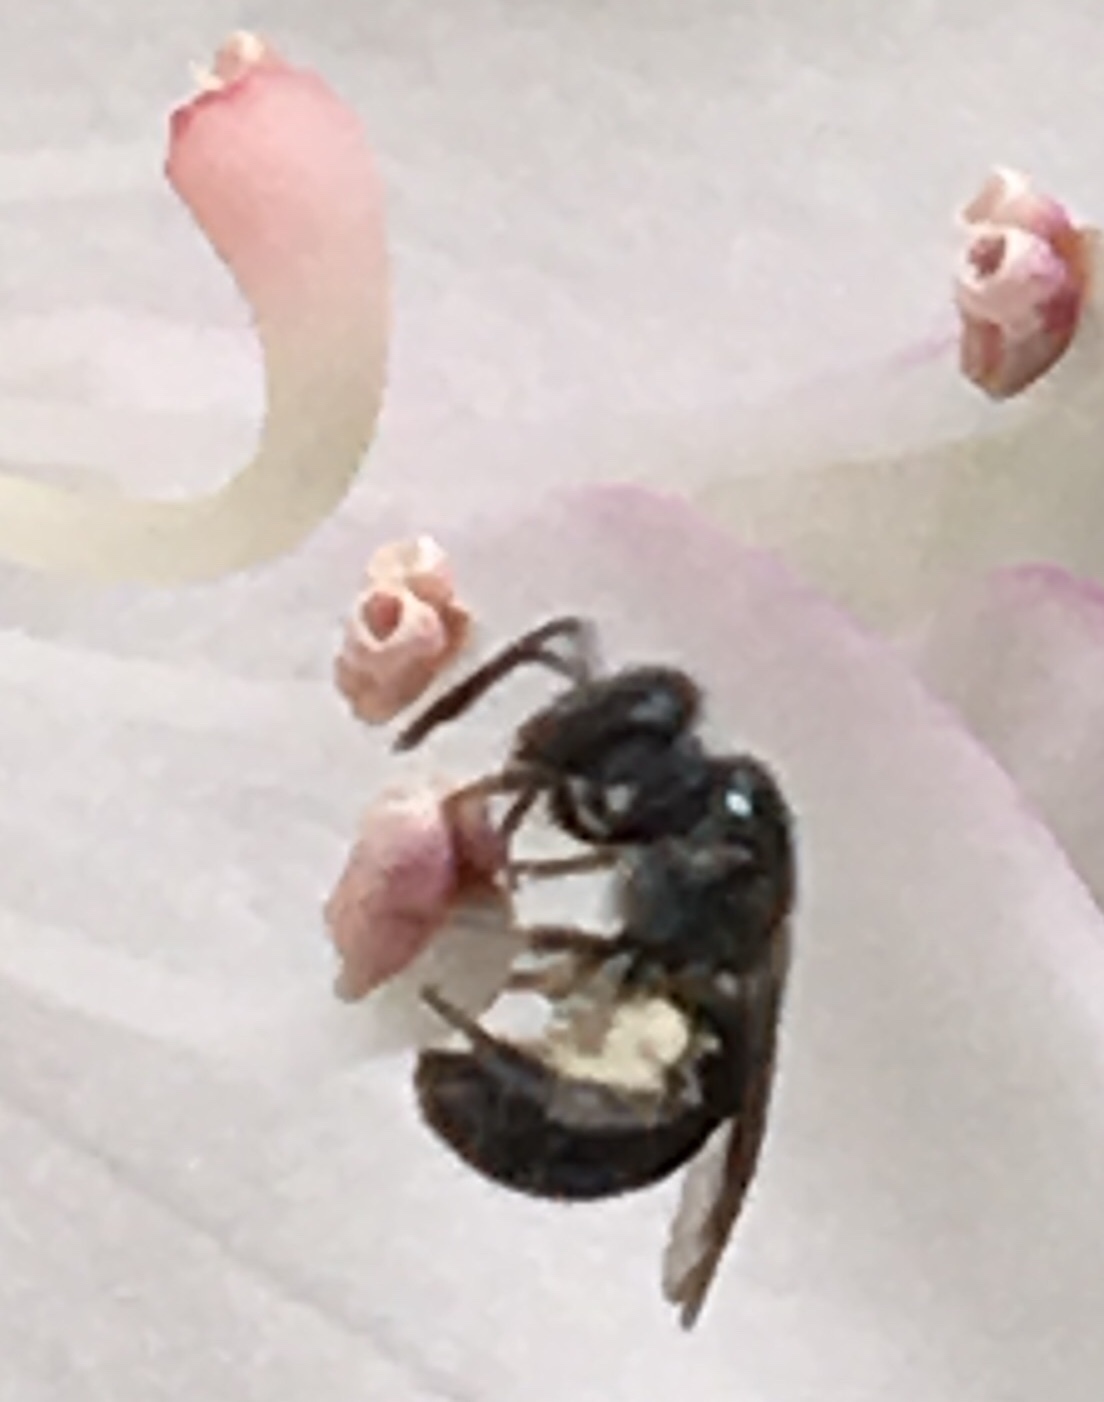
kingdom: Animalia
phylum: Arthropoda
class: Insecta
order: Hymenoptera
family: Halictidae
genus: Dialictus
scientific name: Dialictus
